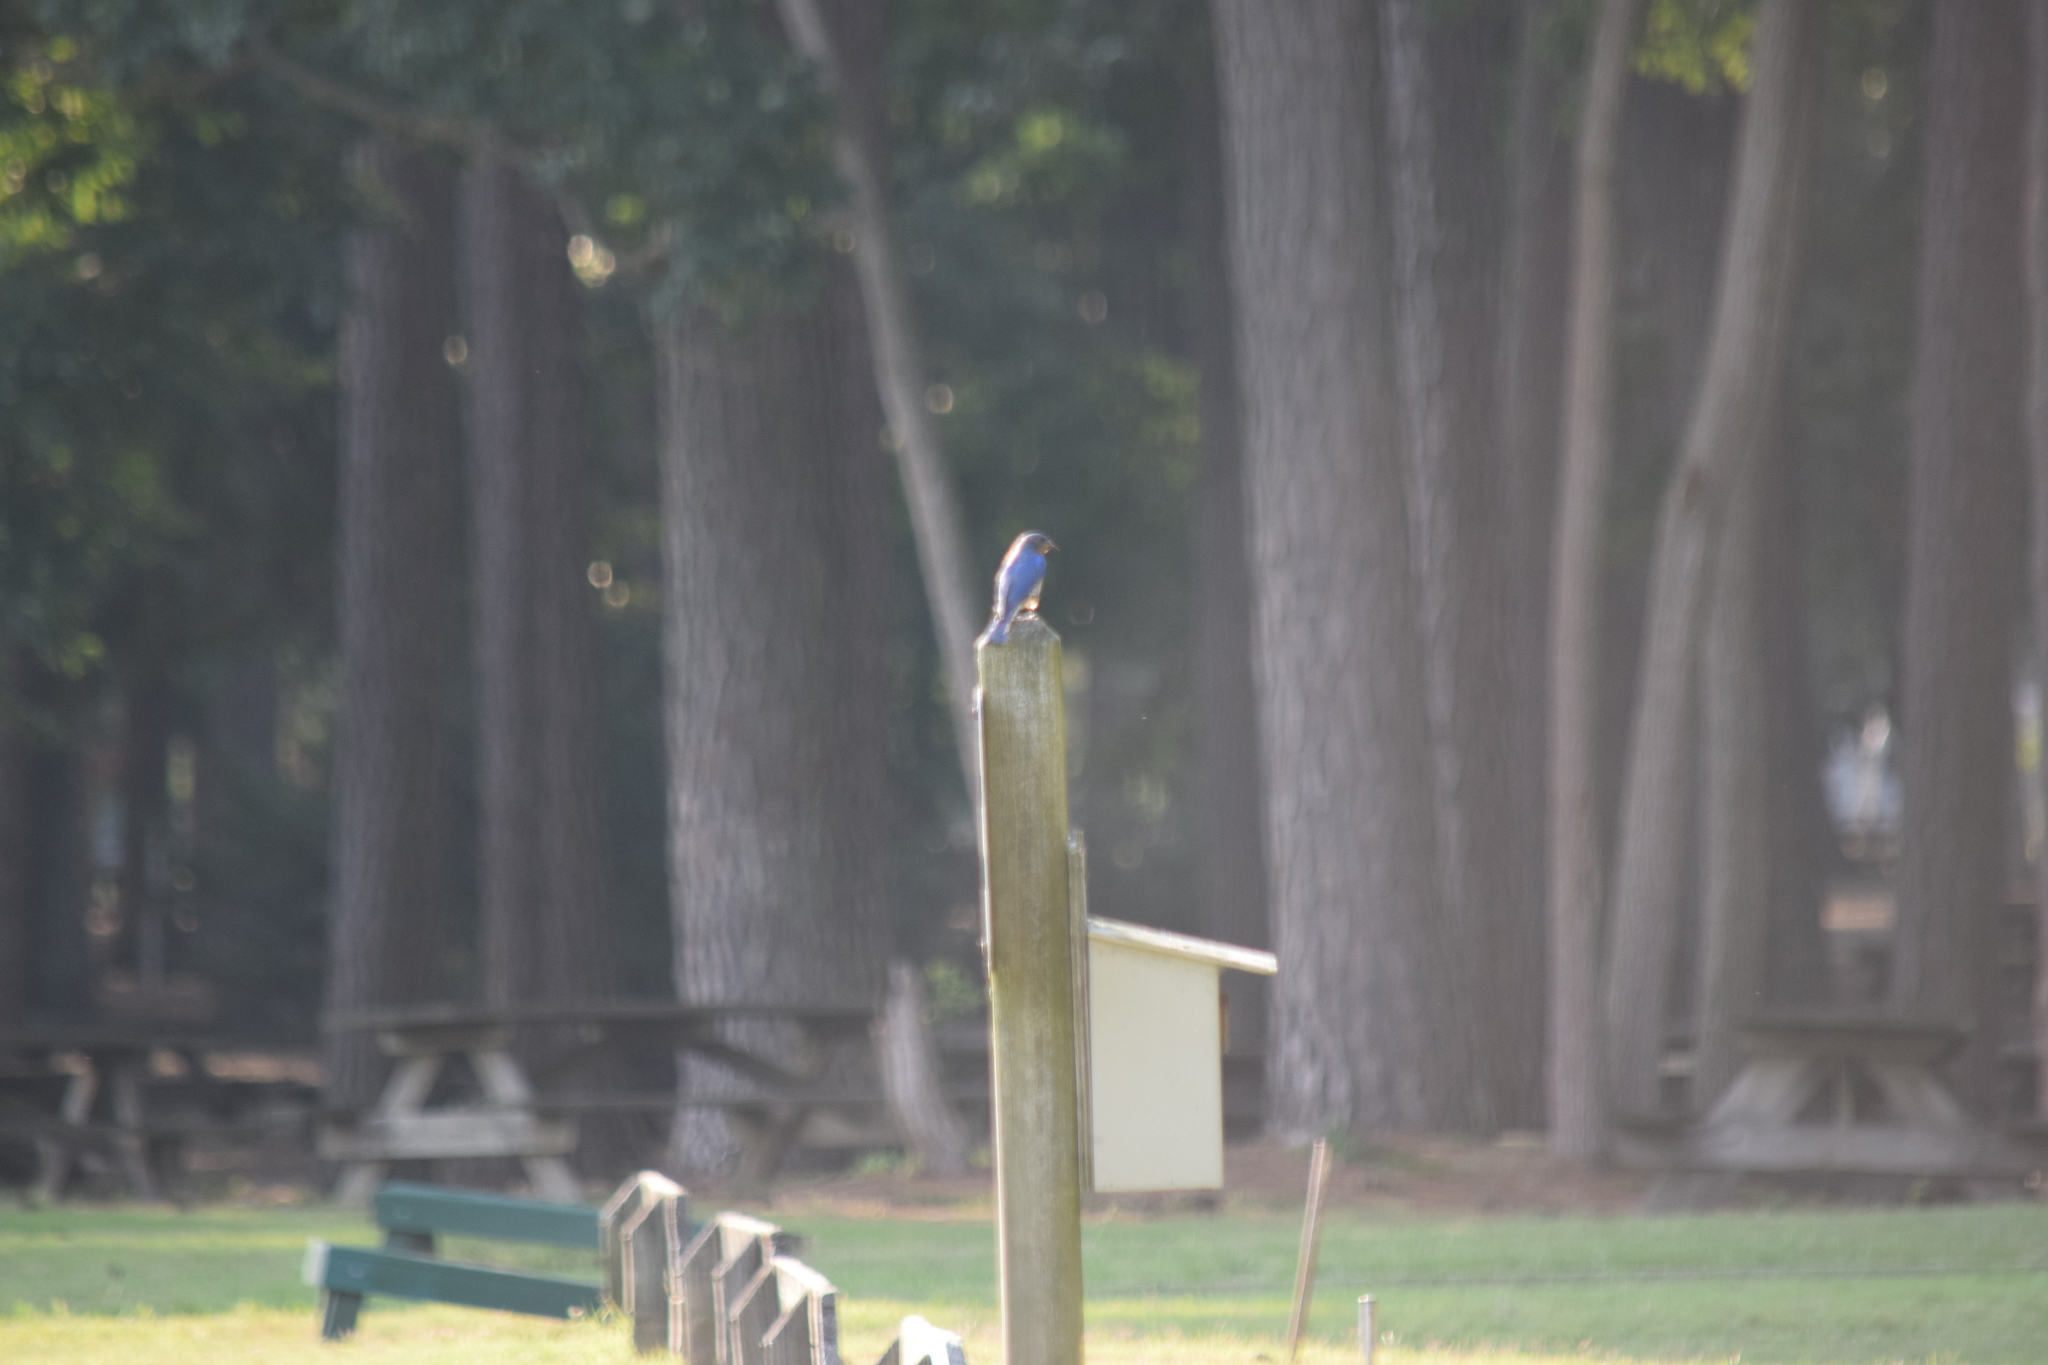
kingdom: Animalia
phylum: Chordata
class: Aves
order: Passeriformes
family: Turdidae
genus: Sialia
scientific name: Sialia sialis
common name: Eastern bluebird
